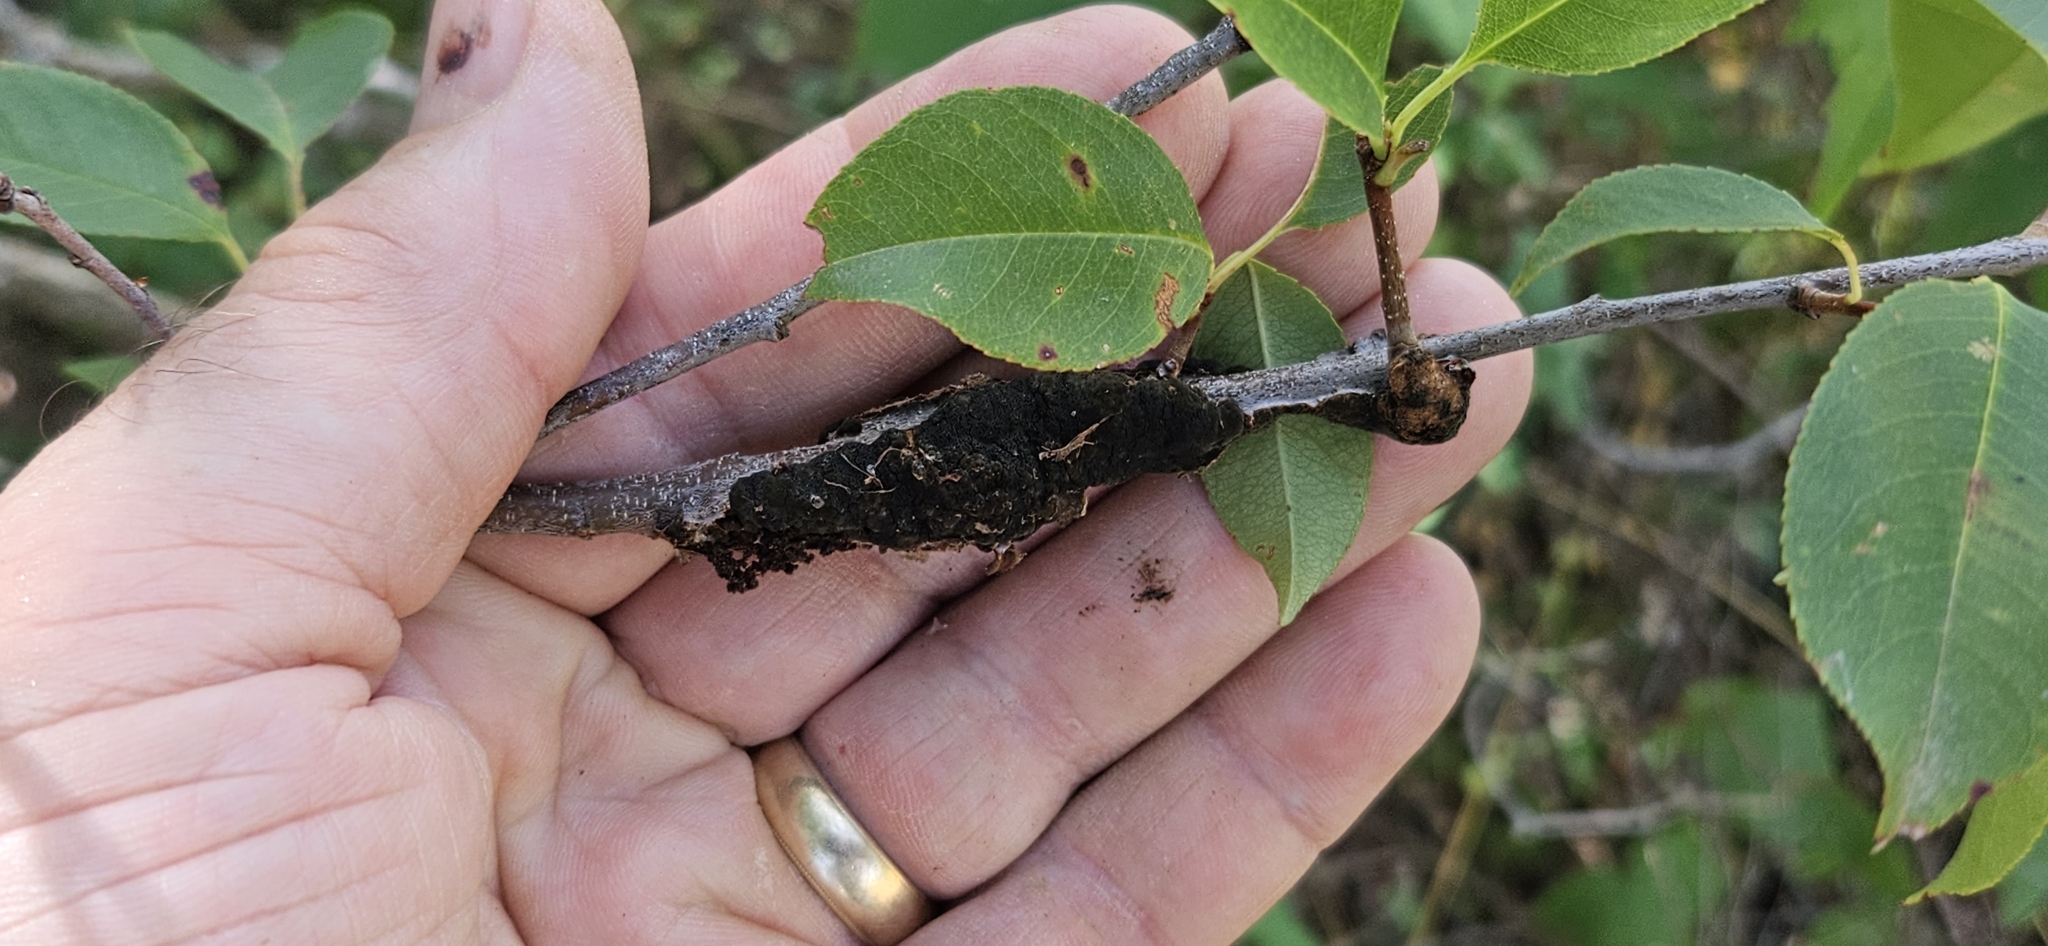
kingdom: Fungi
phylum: Ascomycota
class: Dothideomycetes
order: Venturiales
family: Venturiaceae
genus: Apiosporina
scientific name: Apiosporina morbosa
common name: Black knot
